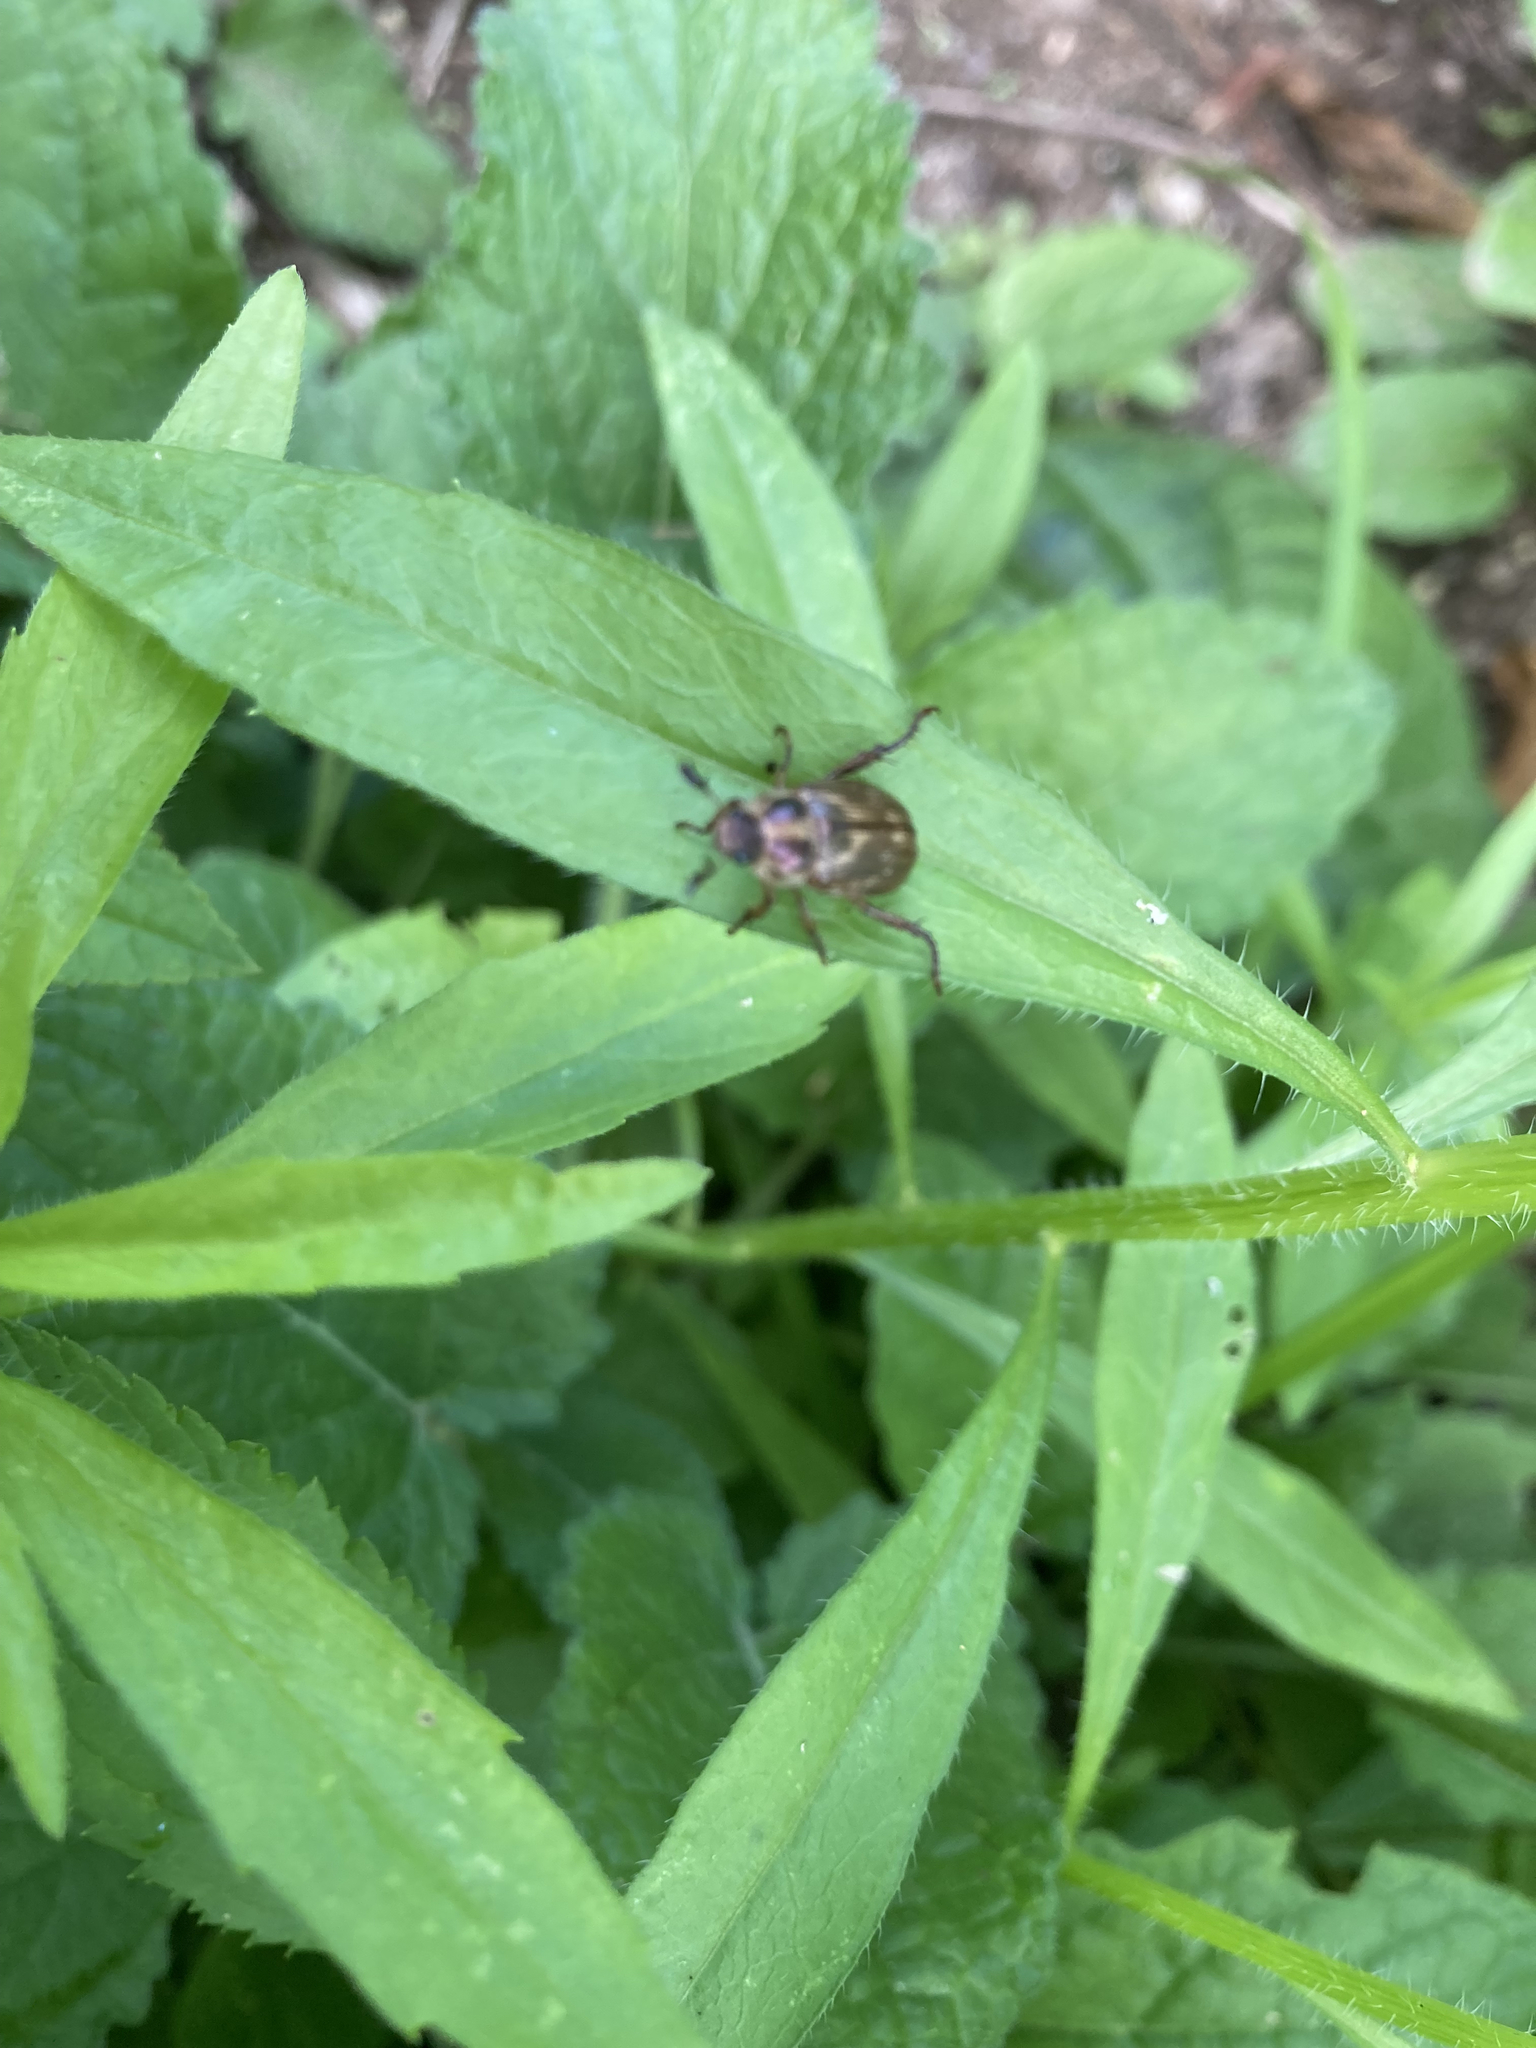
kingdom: Animalia
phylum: Arthropoda
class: Insecta
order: Coleoptera
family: Scarabaeidae
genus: Exomala
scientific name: Exomala orientalis
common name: Oriental beetle
